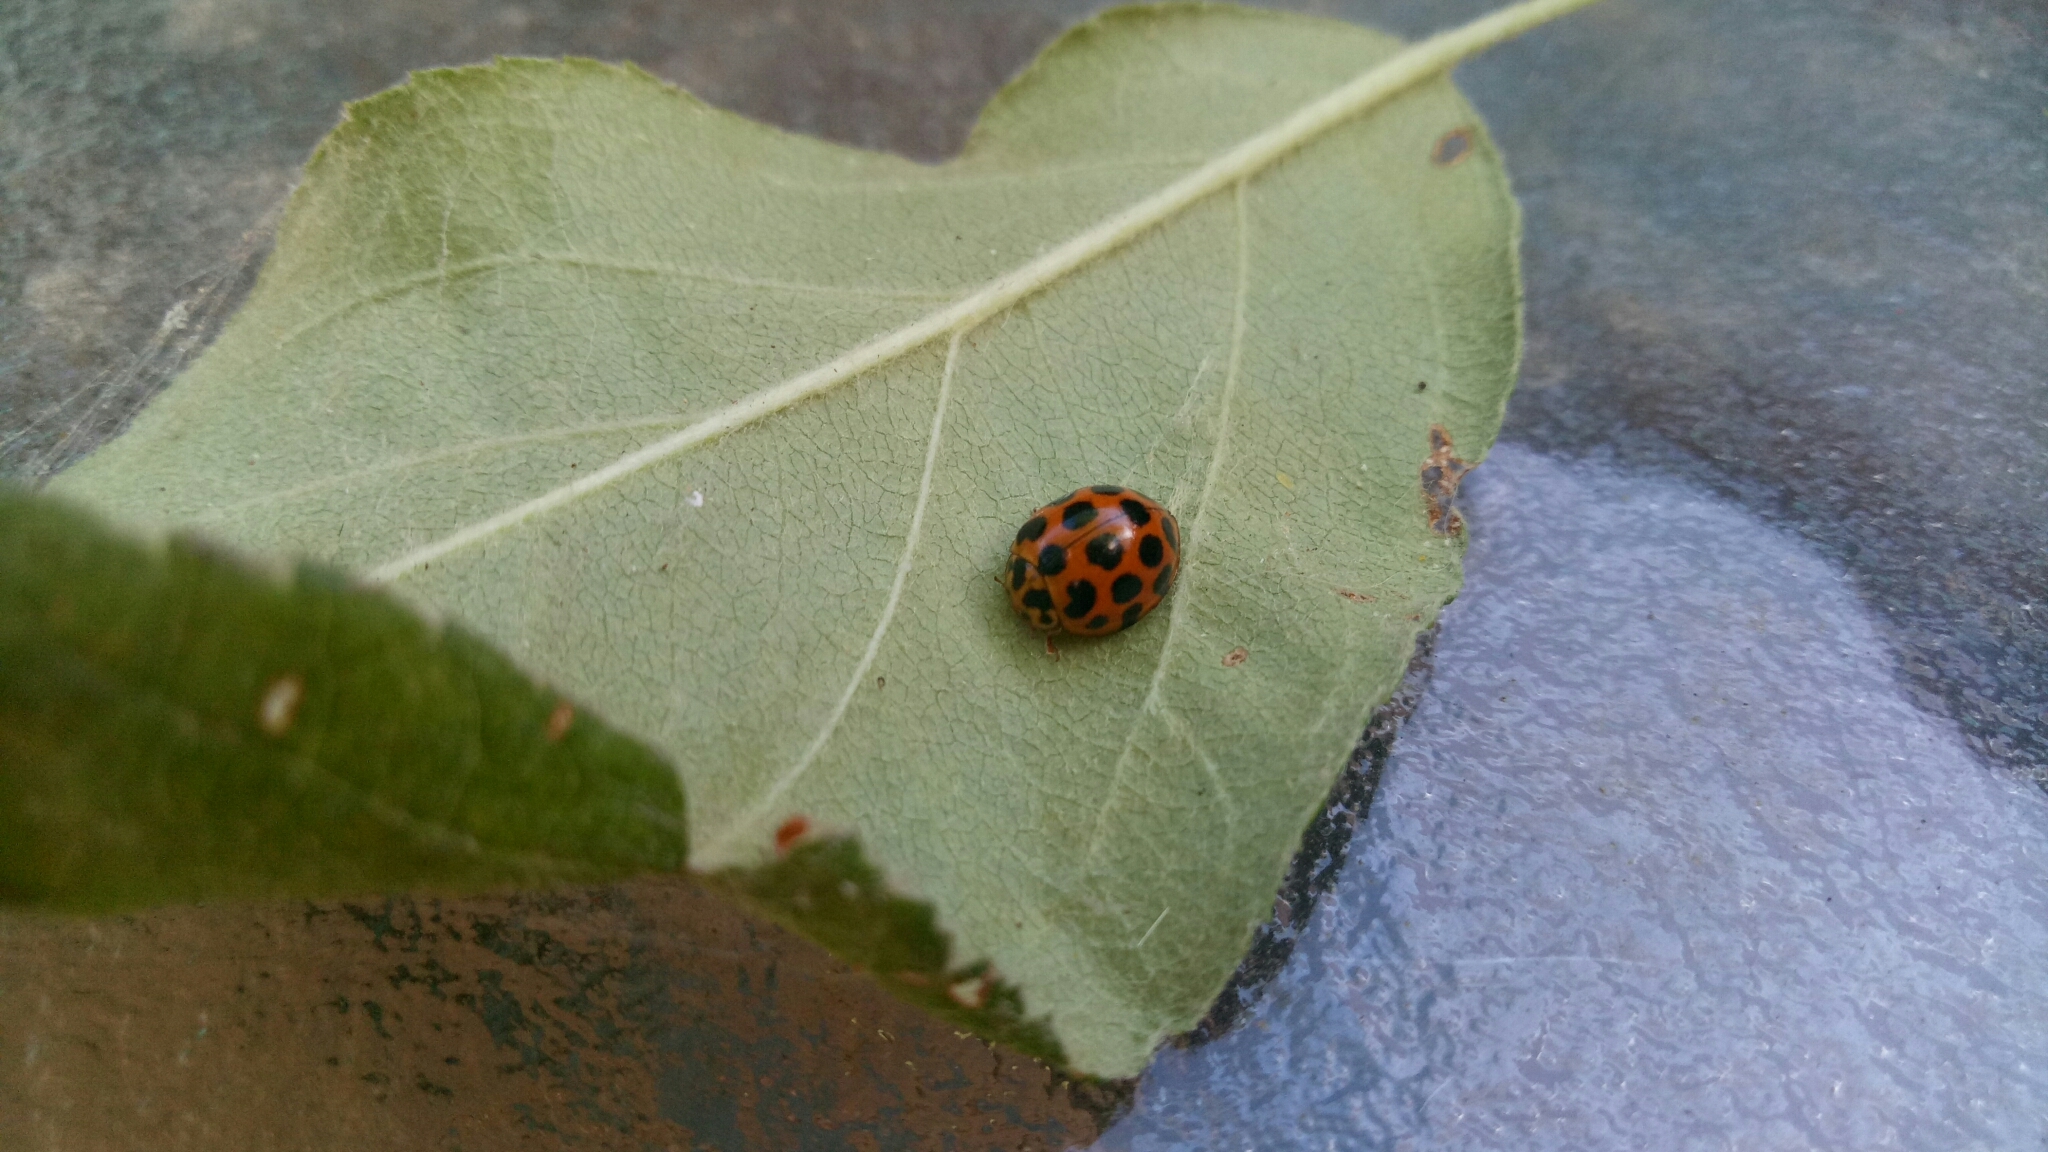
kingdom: Animalia
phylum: Arthropoda
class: Insecta
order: Coleoptera
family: Coccinellidae
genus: Harmonia
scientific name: Harmonia conformis
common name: Common spotted ladybird beetle
